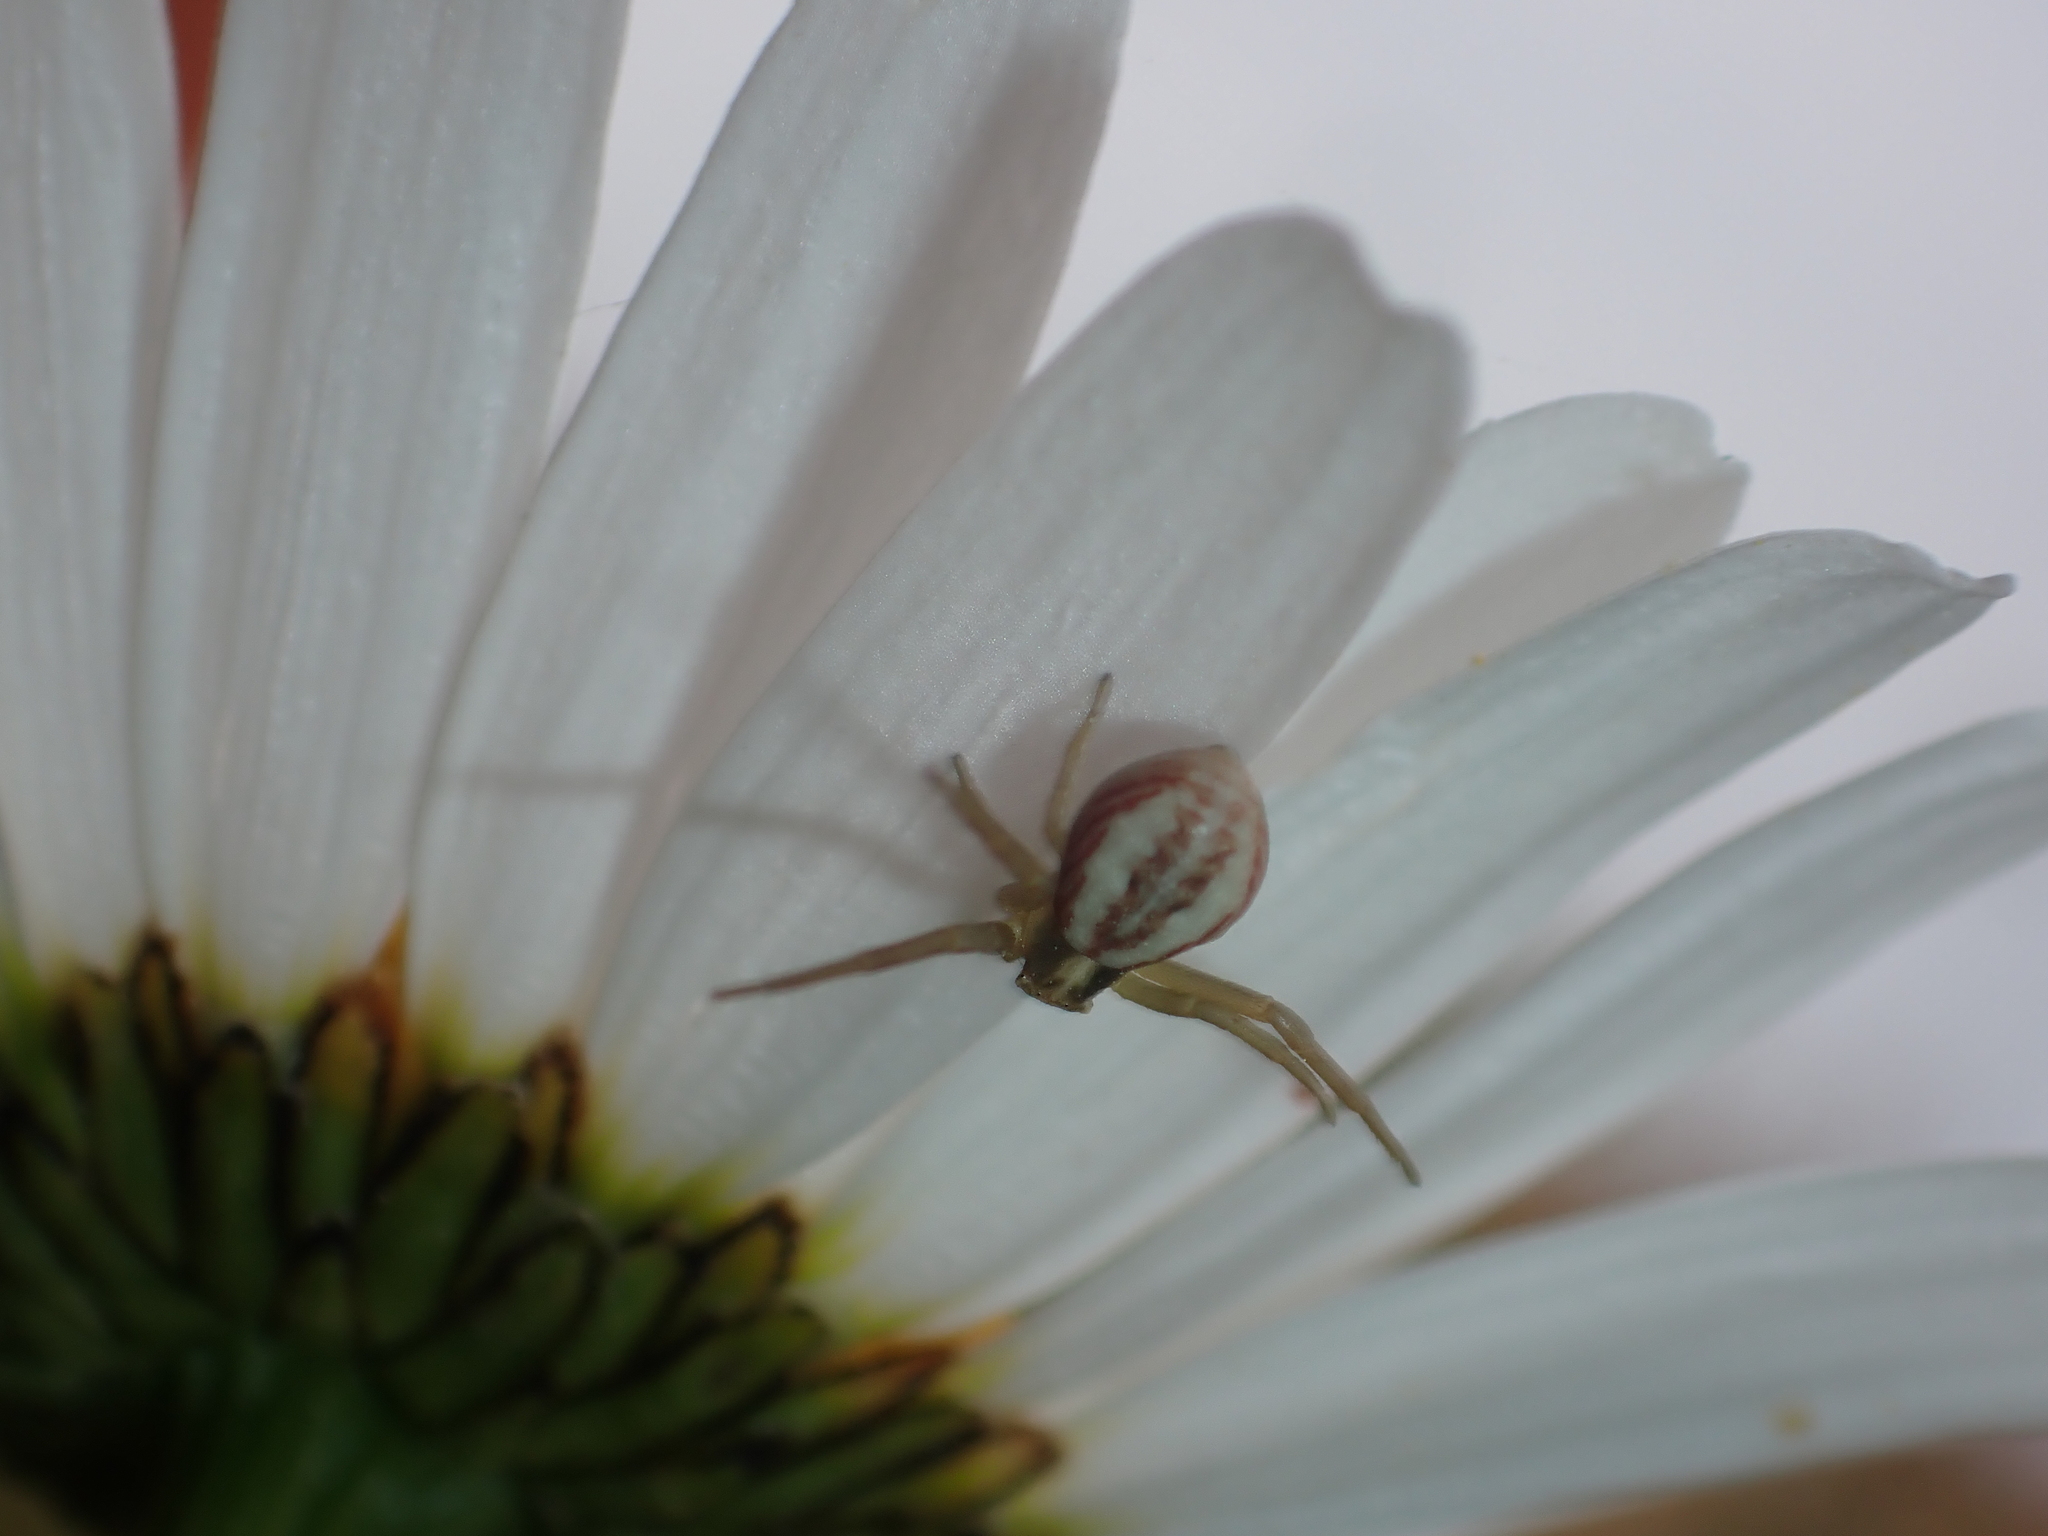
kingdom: Animalia
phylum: Arthropoda
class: Arachnida
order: Araneae
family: Thomisidae
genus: Runcinia
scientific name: Runcinia grammica
